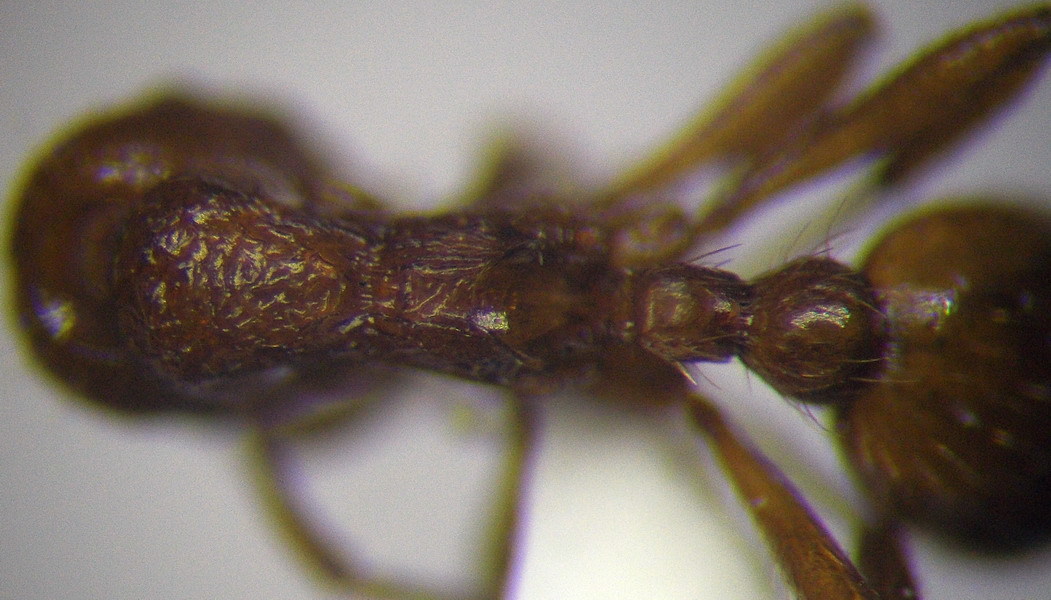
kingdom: Animalia
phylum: Arthropoda
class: Insecta
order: Hymenoptera
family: Formicidae
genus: Myrmica
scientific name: Myrmica rubra
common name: European fire ant
